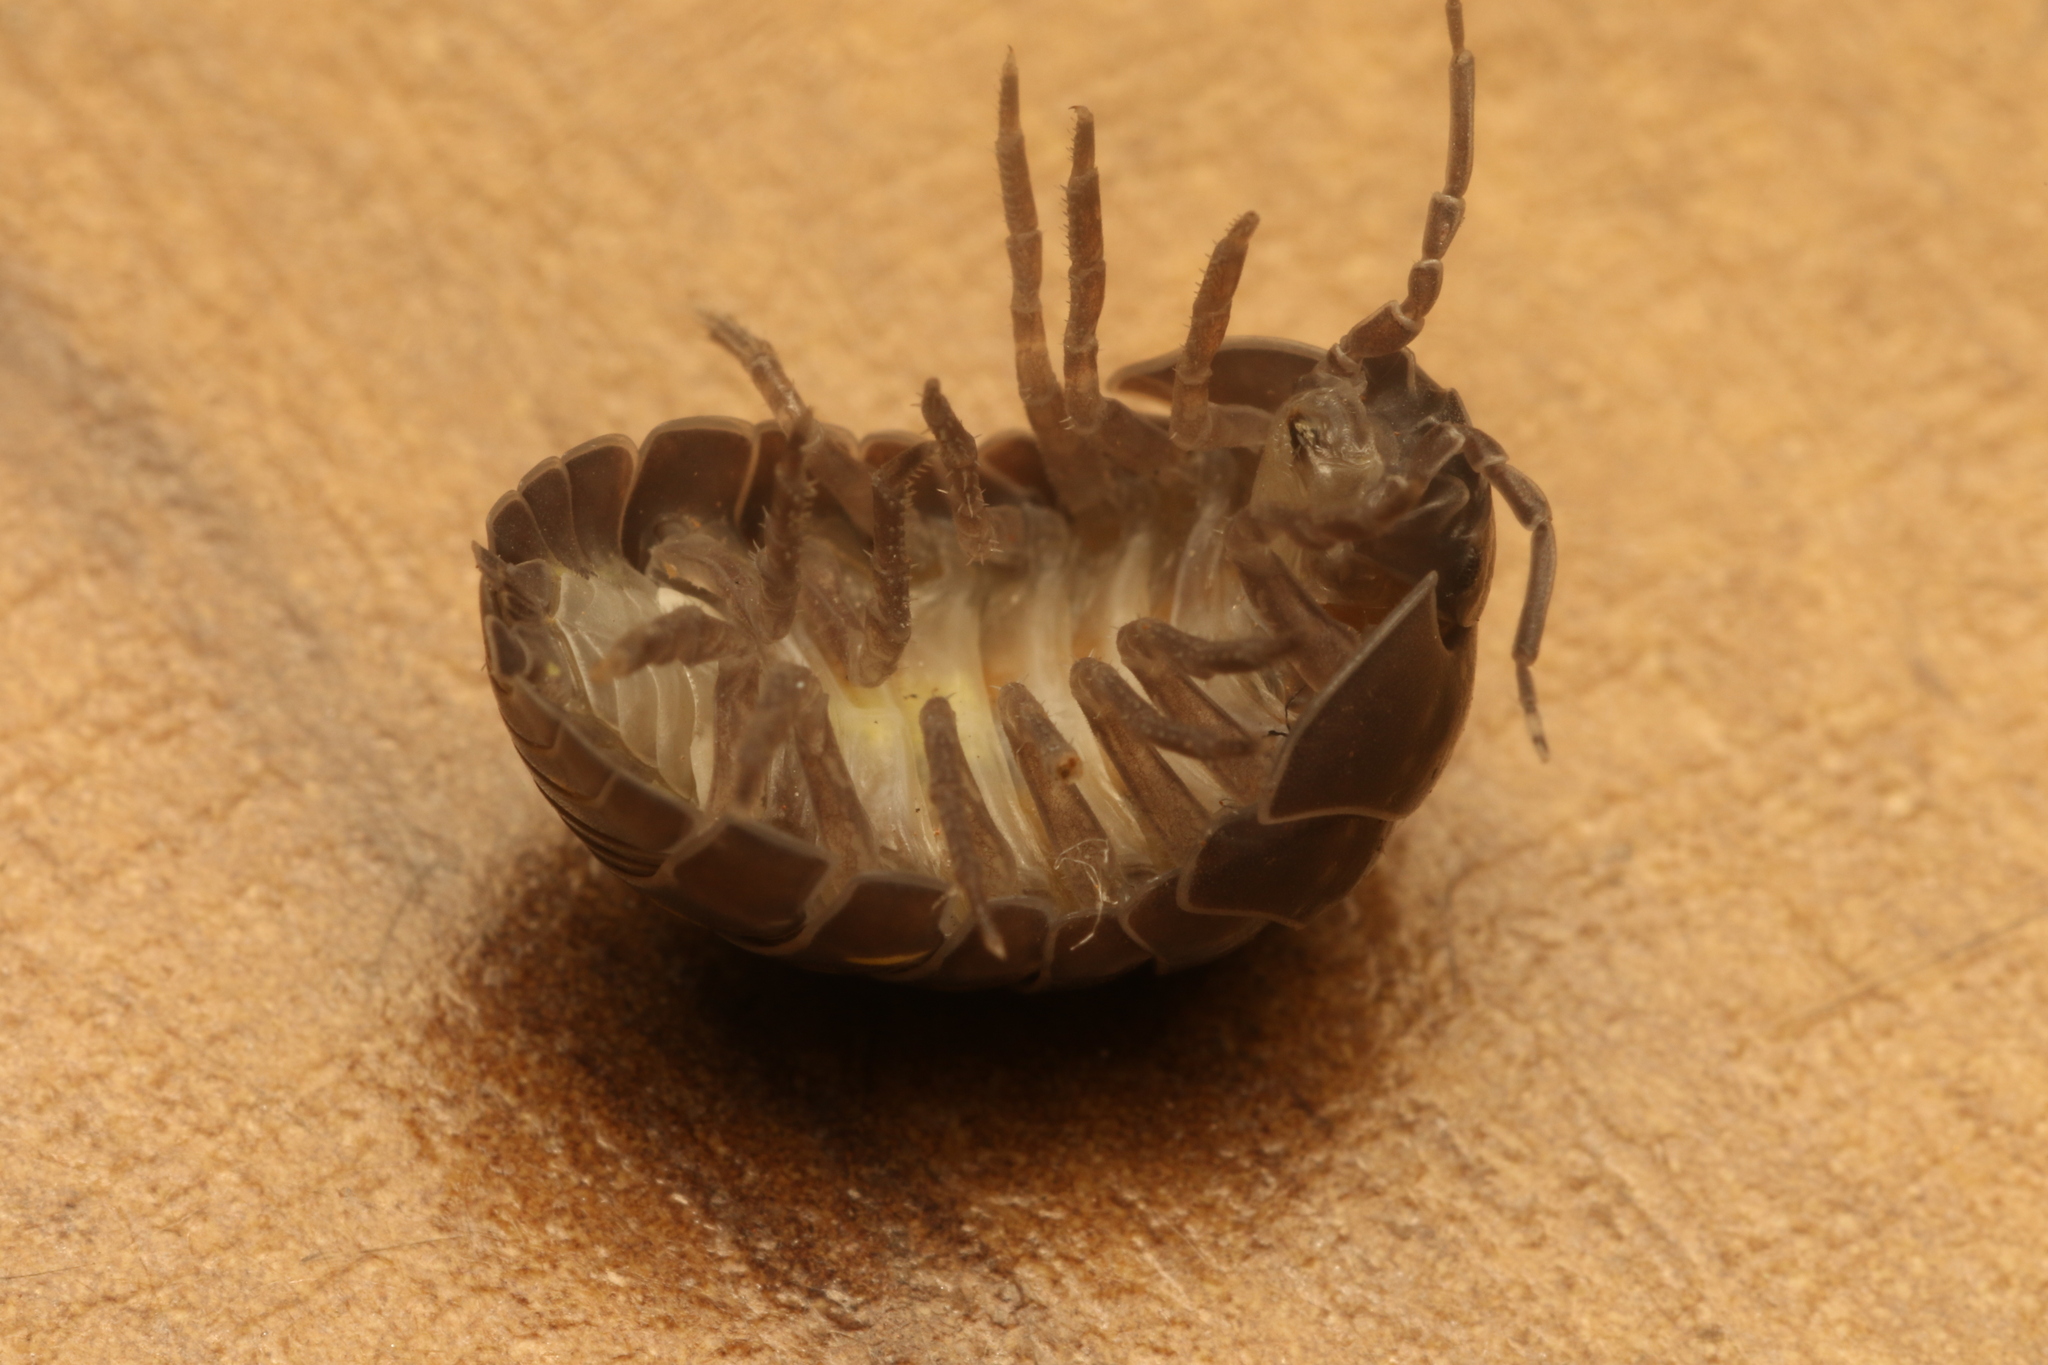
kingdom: Animalia
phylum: Arthropoda
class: Malacostraca
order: Isopoda
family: Armadillidiidae
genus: Armadillidium
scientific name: Armadillidium vulgare
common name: Common pill woodlouse
